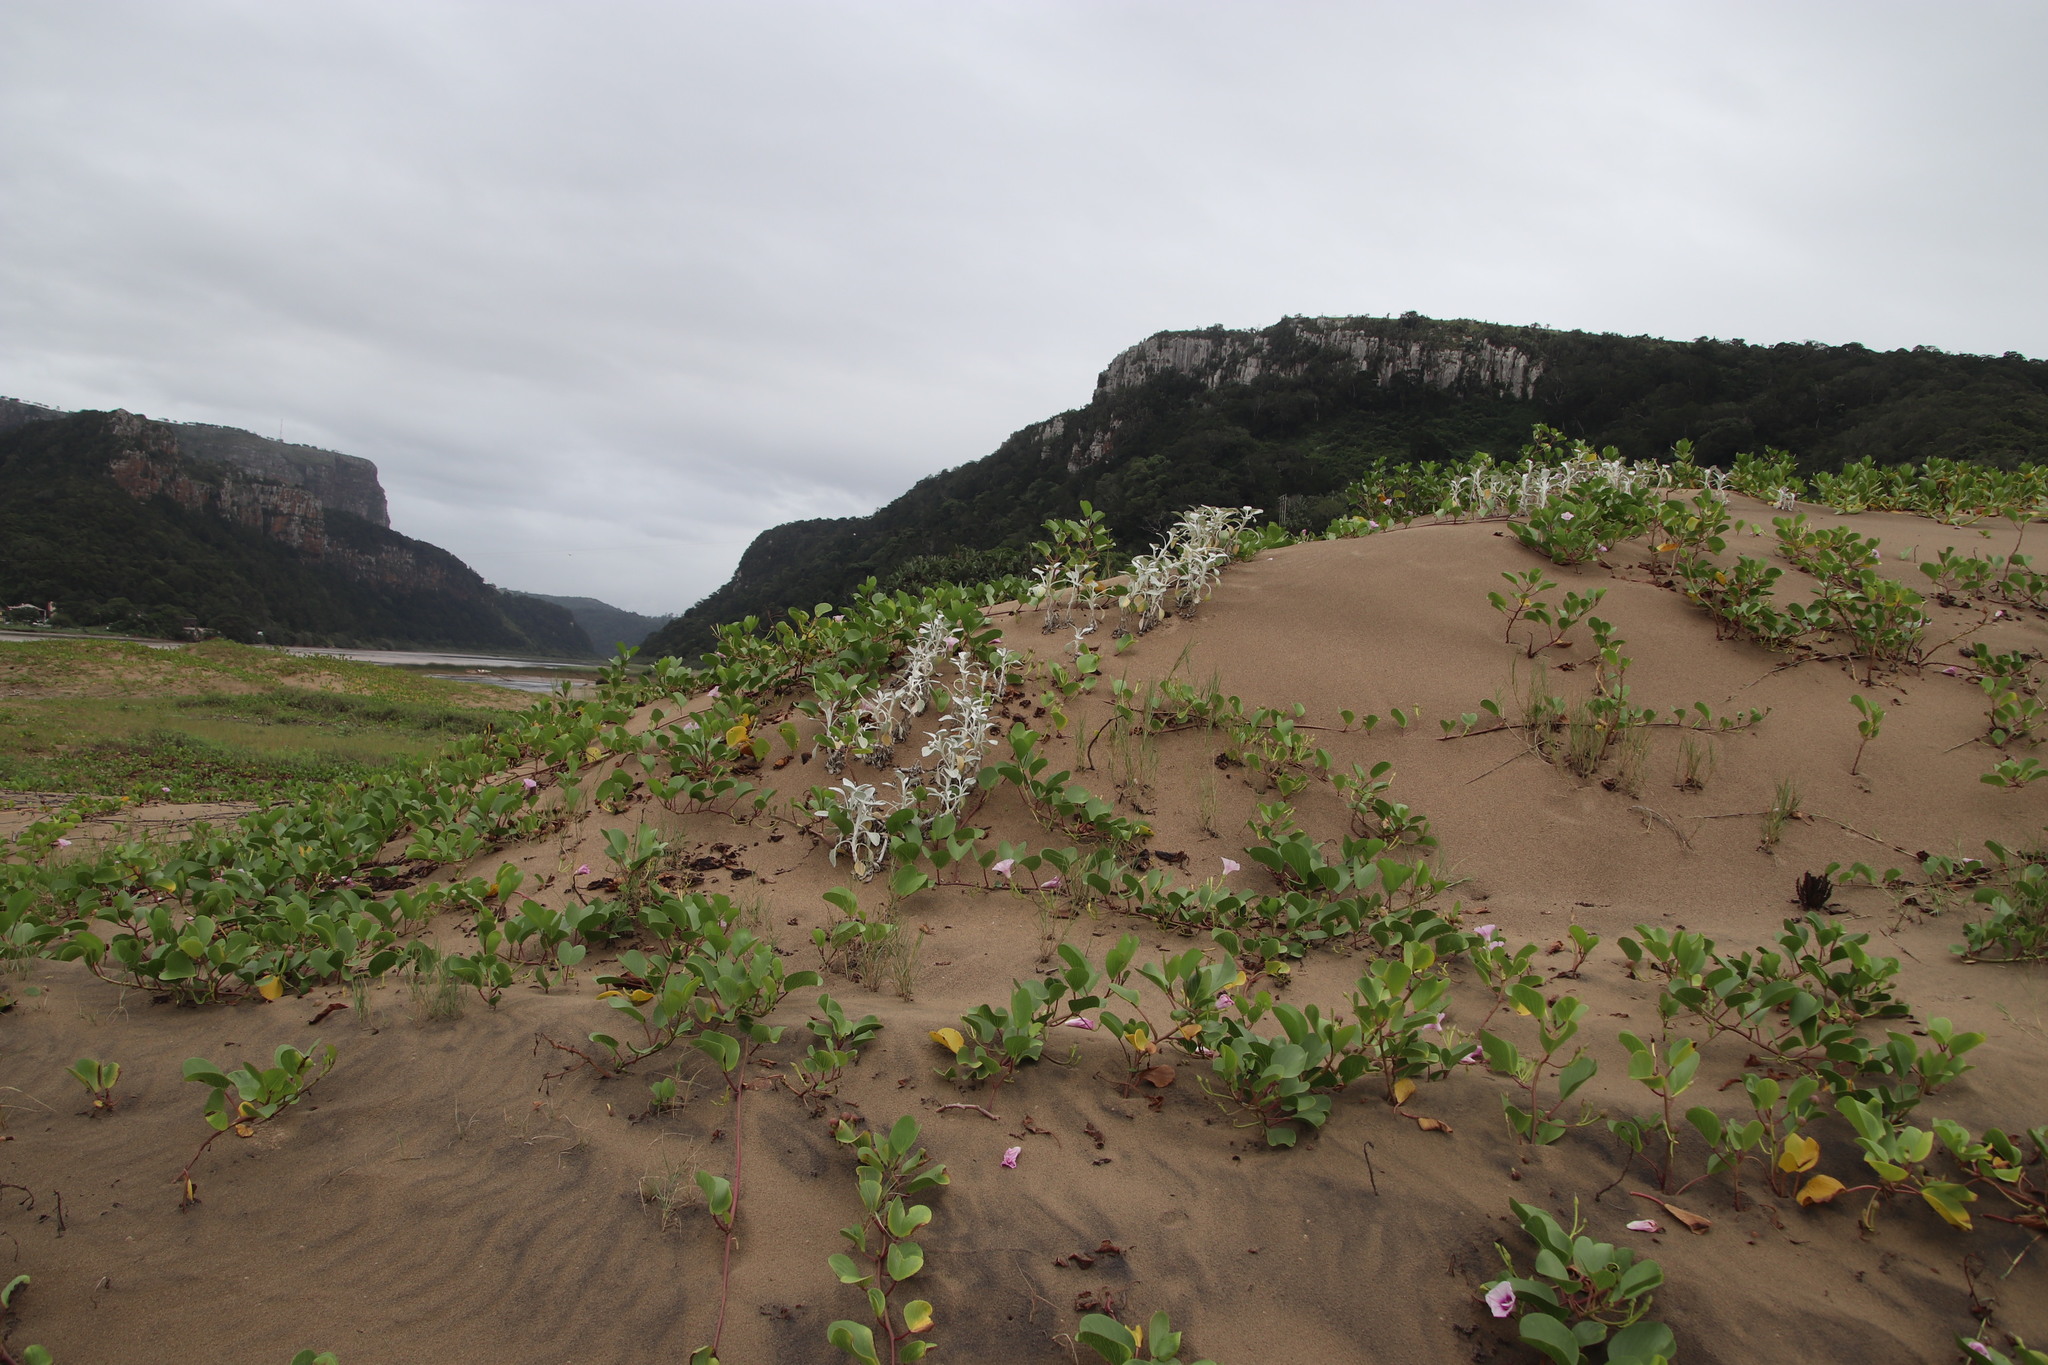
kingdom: Plantae
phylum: Tracheophyta
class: Magnoliopsida
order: Asterales
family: Asteraceae
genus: Arctotheca
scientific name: Arctotheca populifolia
